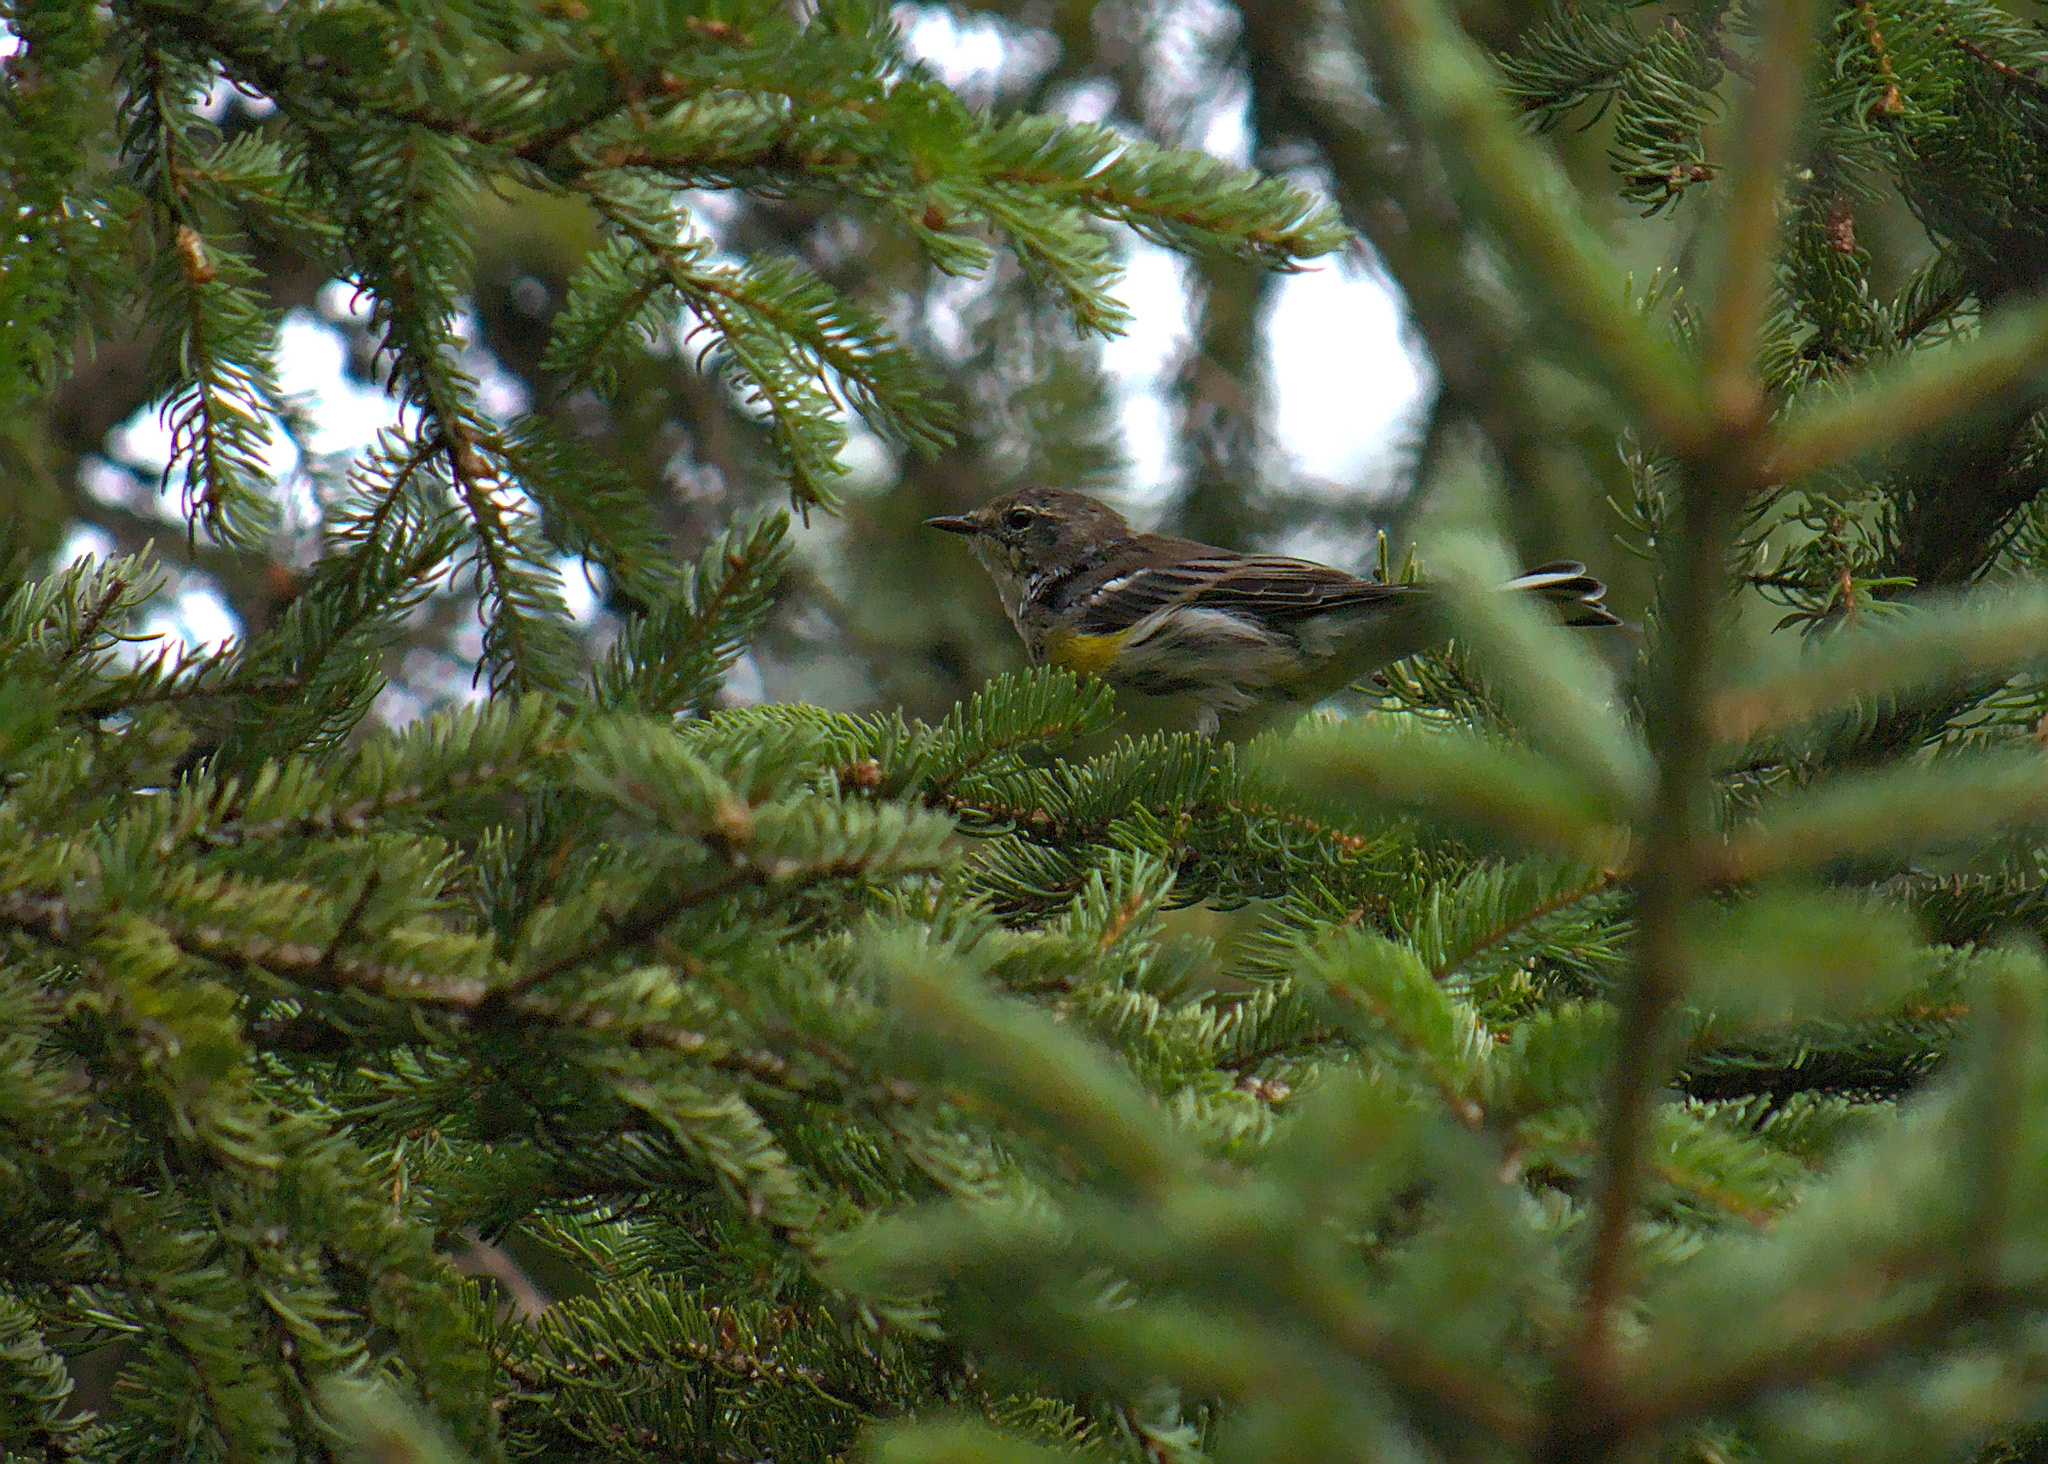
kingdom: Animalia
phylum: Chordata
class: Aves
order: Passeriformes
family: Parulidae
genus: Setophaga
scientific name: Setophaga coronata
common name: Myrtle warbler
